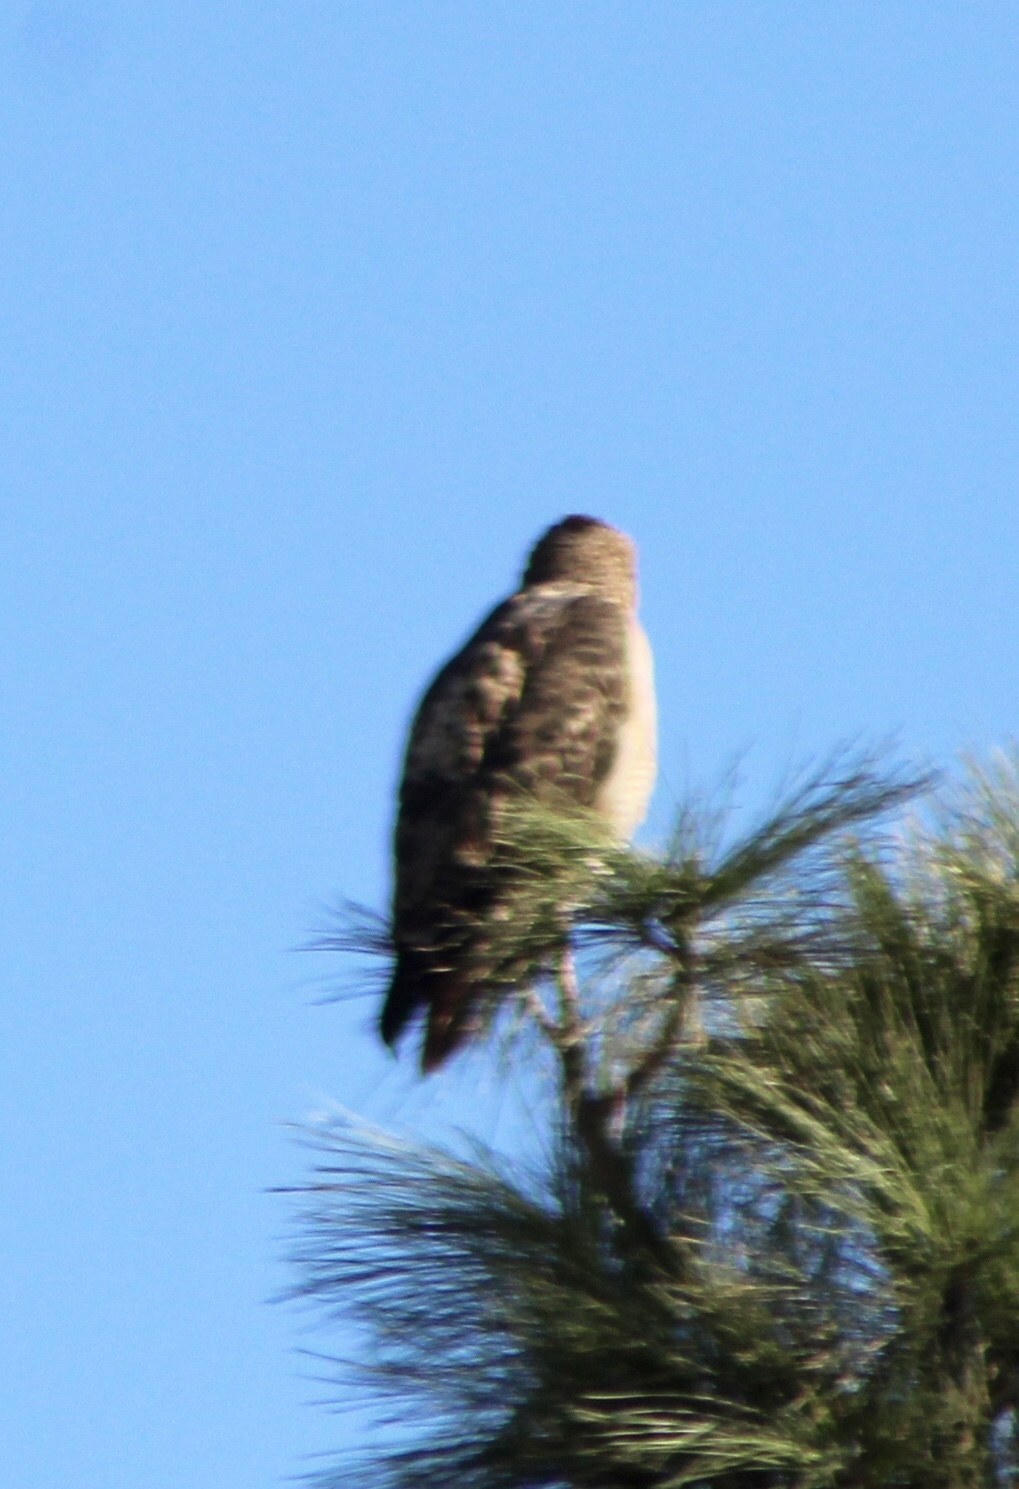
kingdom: Animalia
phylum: Chordata
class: Aves
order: Accipitriformes
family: Accipitridae
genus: Buteo
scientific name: Buteo jamaicensis
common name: Red-tailed hawk
